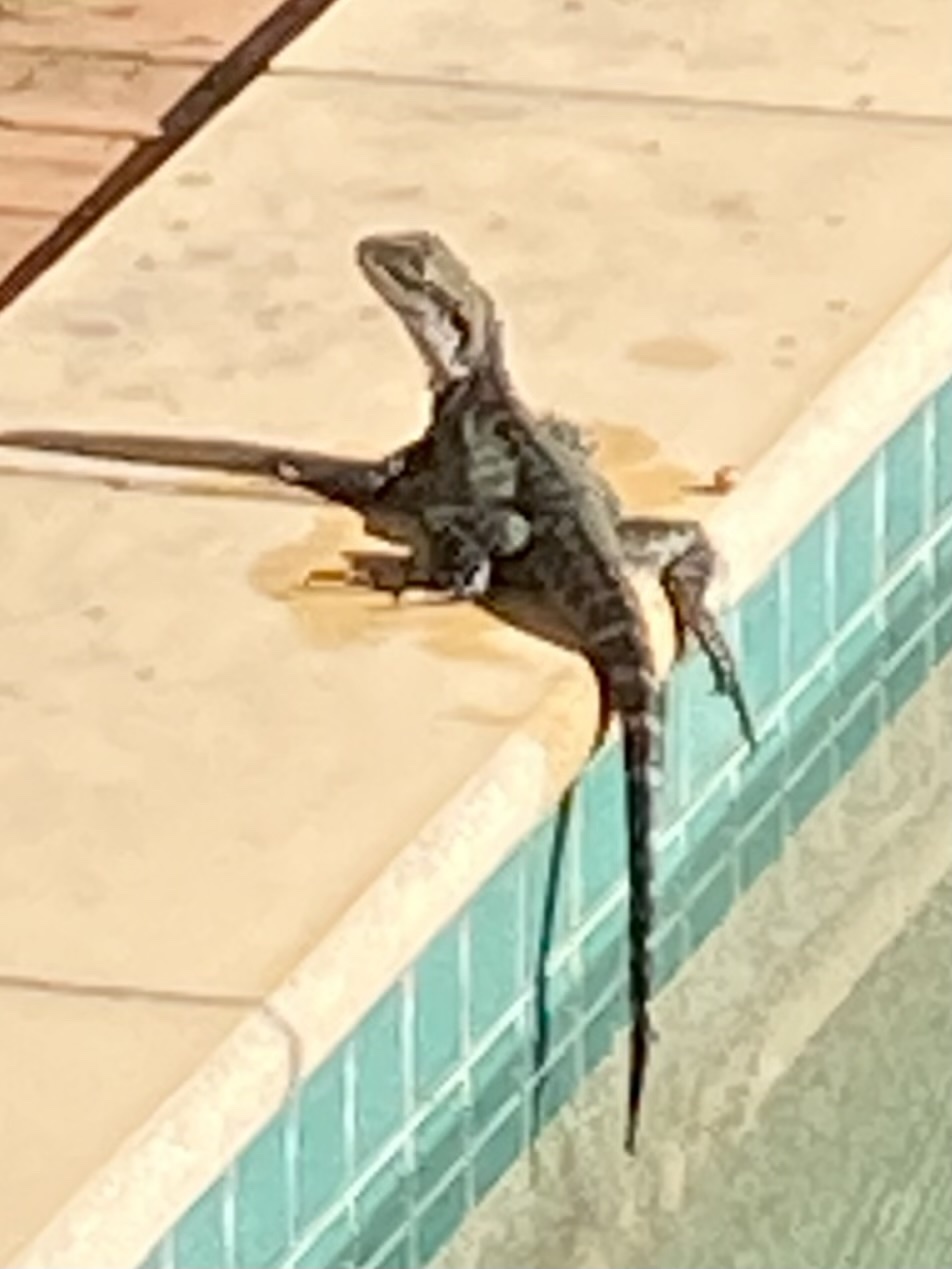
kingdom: Animalia
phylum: Chordata
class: Squamata
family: Agamidae
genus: Intellagama
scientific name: Intellagama lesueurii
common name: Eastern water dragon
